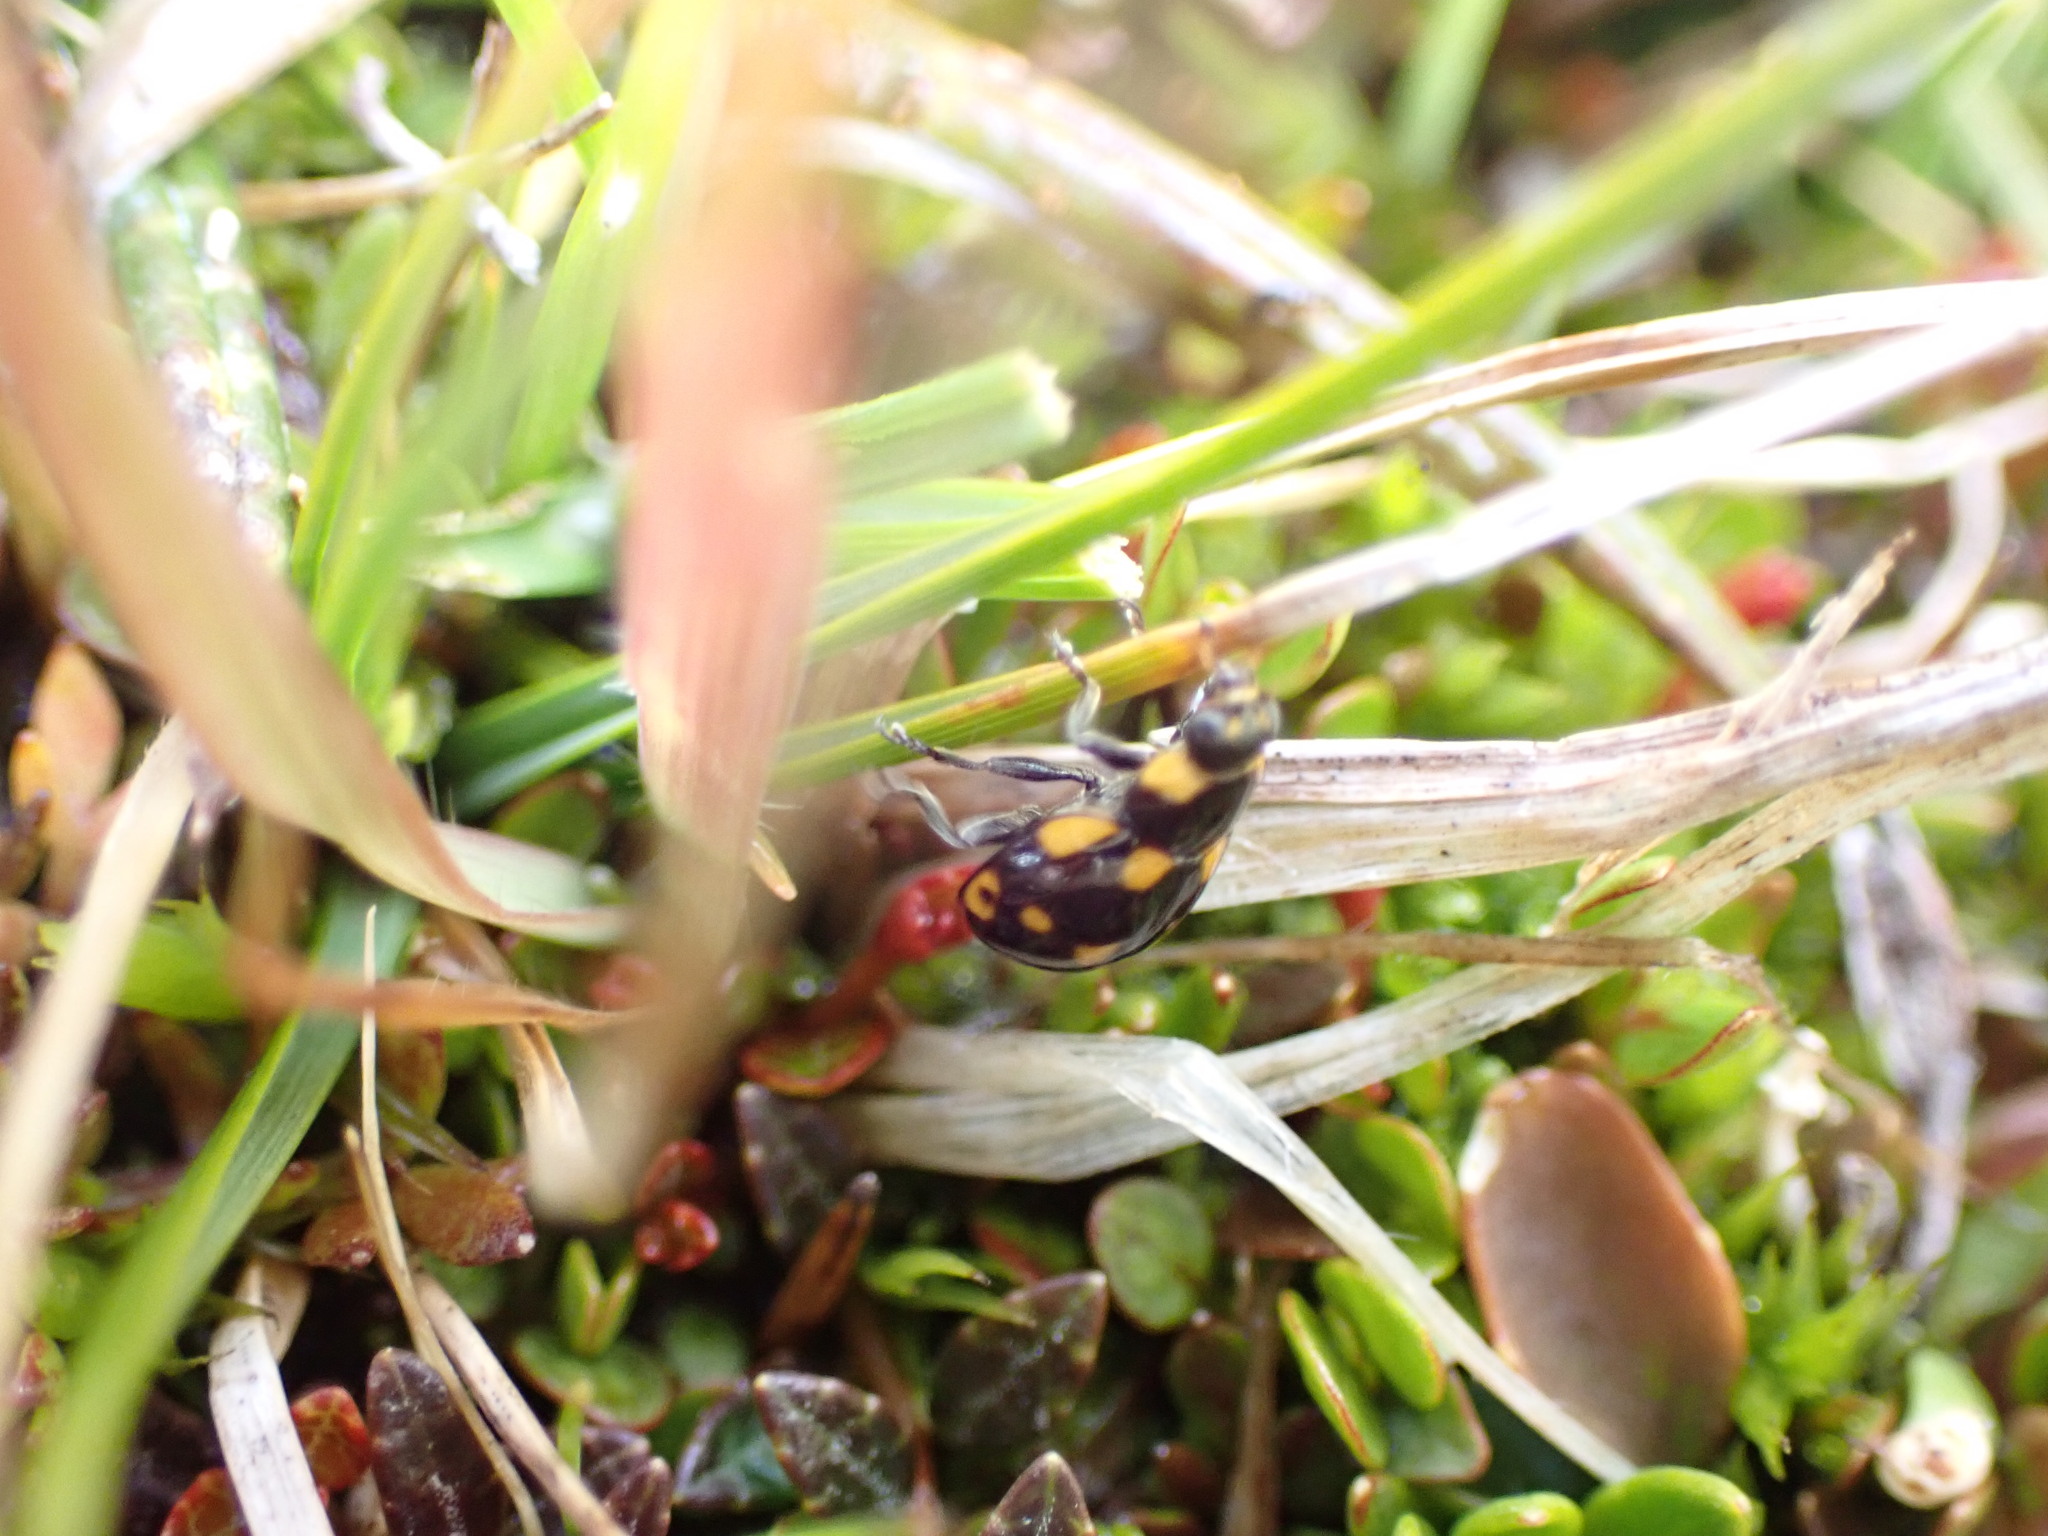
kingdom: Animalia
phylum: Arthropoda
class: Insecta
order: Coleoptera
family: Coccinellidae
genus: Coccinella
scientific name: Coccinella leonina
